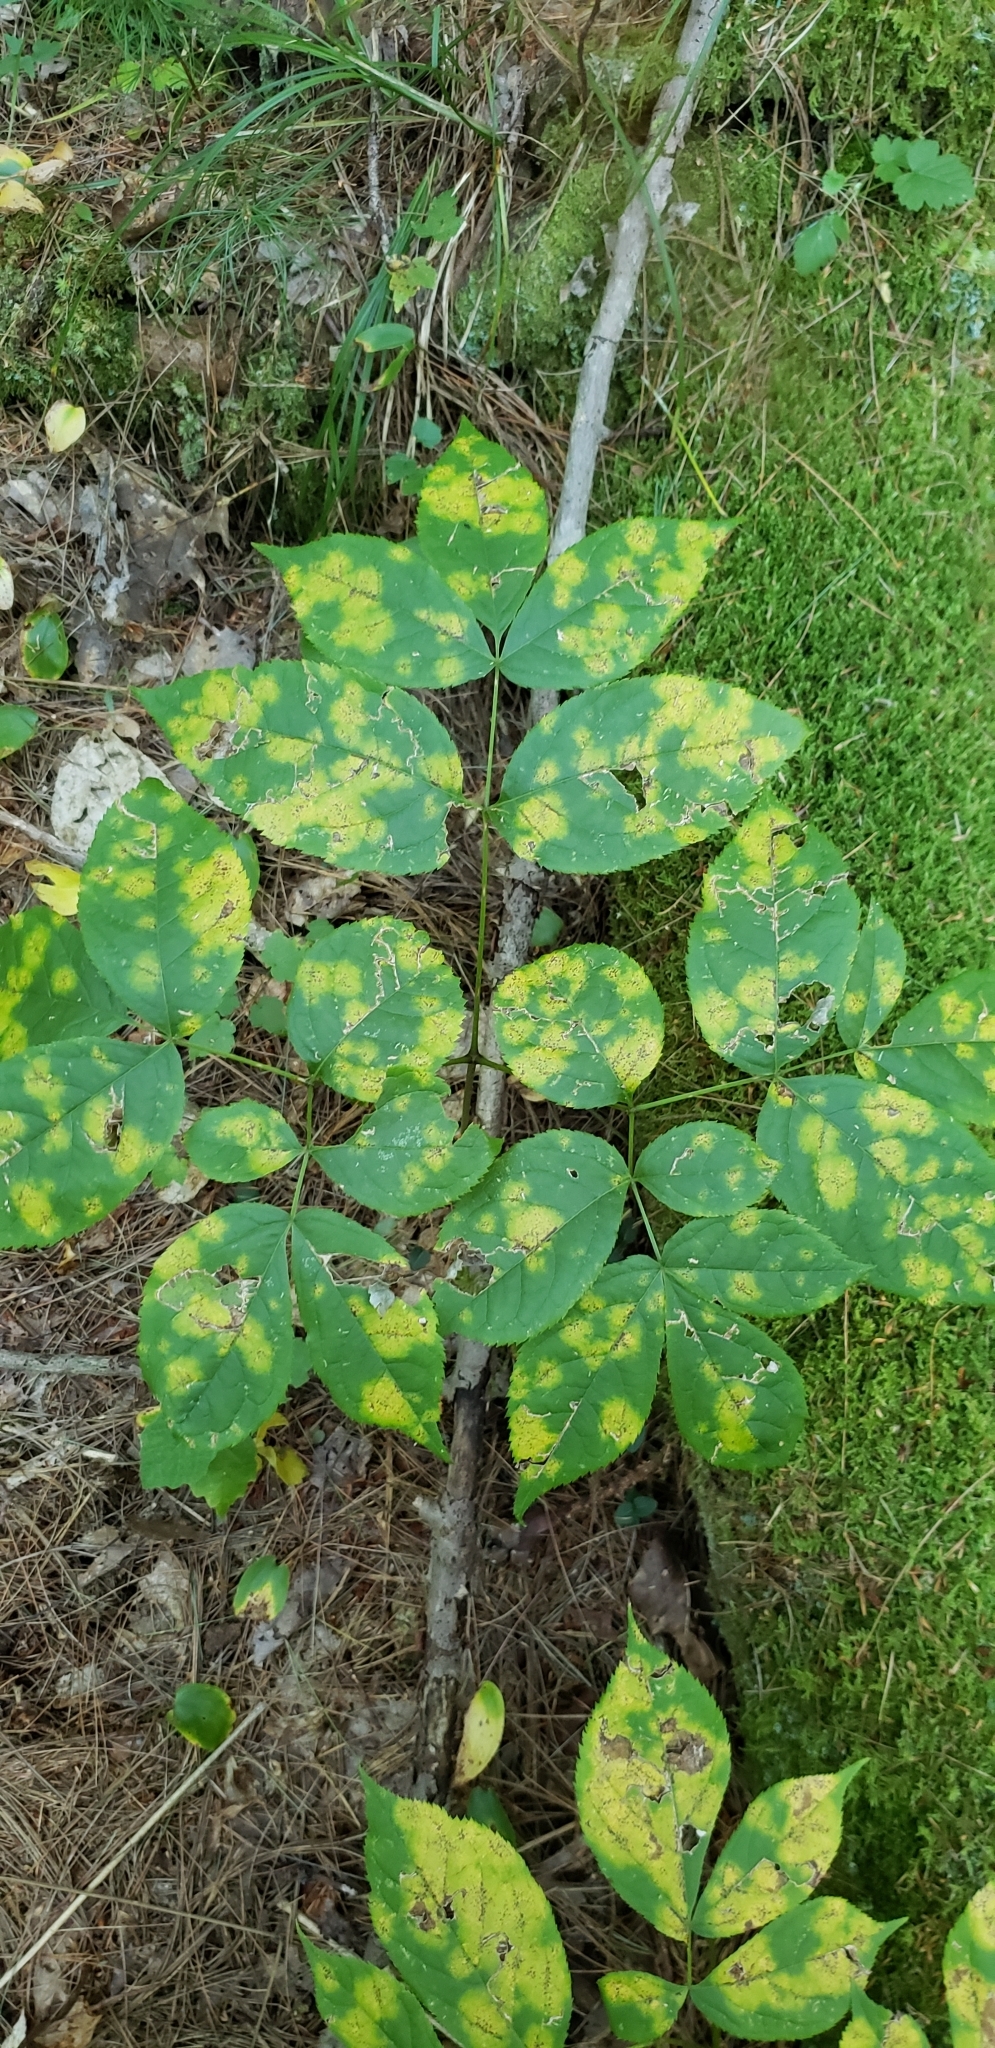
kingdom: Plantae
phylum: Tracheophyta
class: Magnoliopsida
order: Apiales
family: Araliaceae
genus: Aralia
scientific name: Aralia nudicaulis
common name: Wild sarsaparilla
